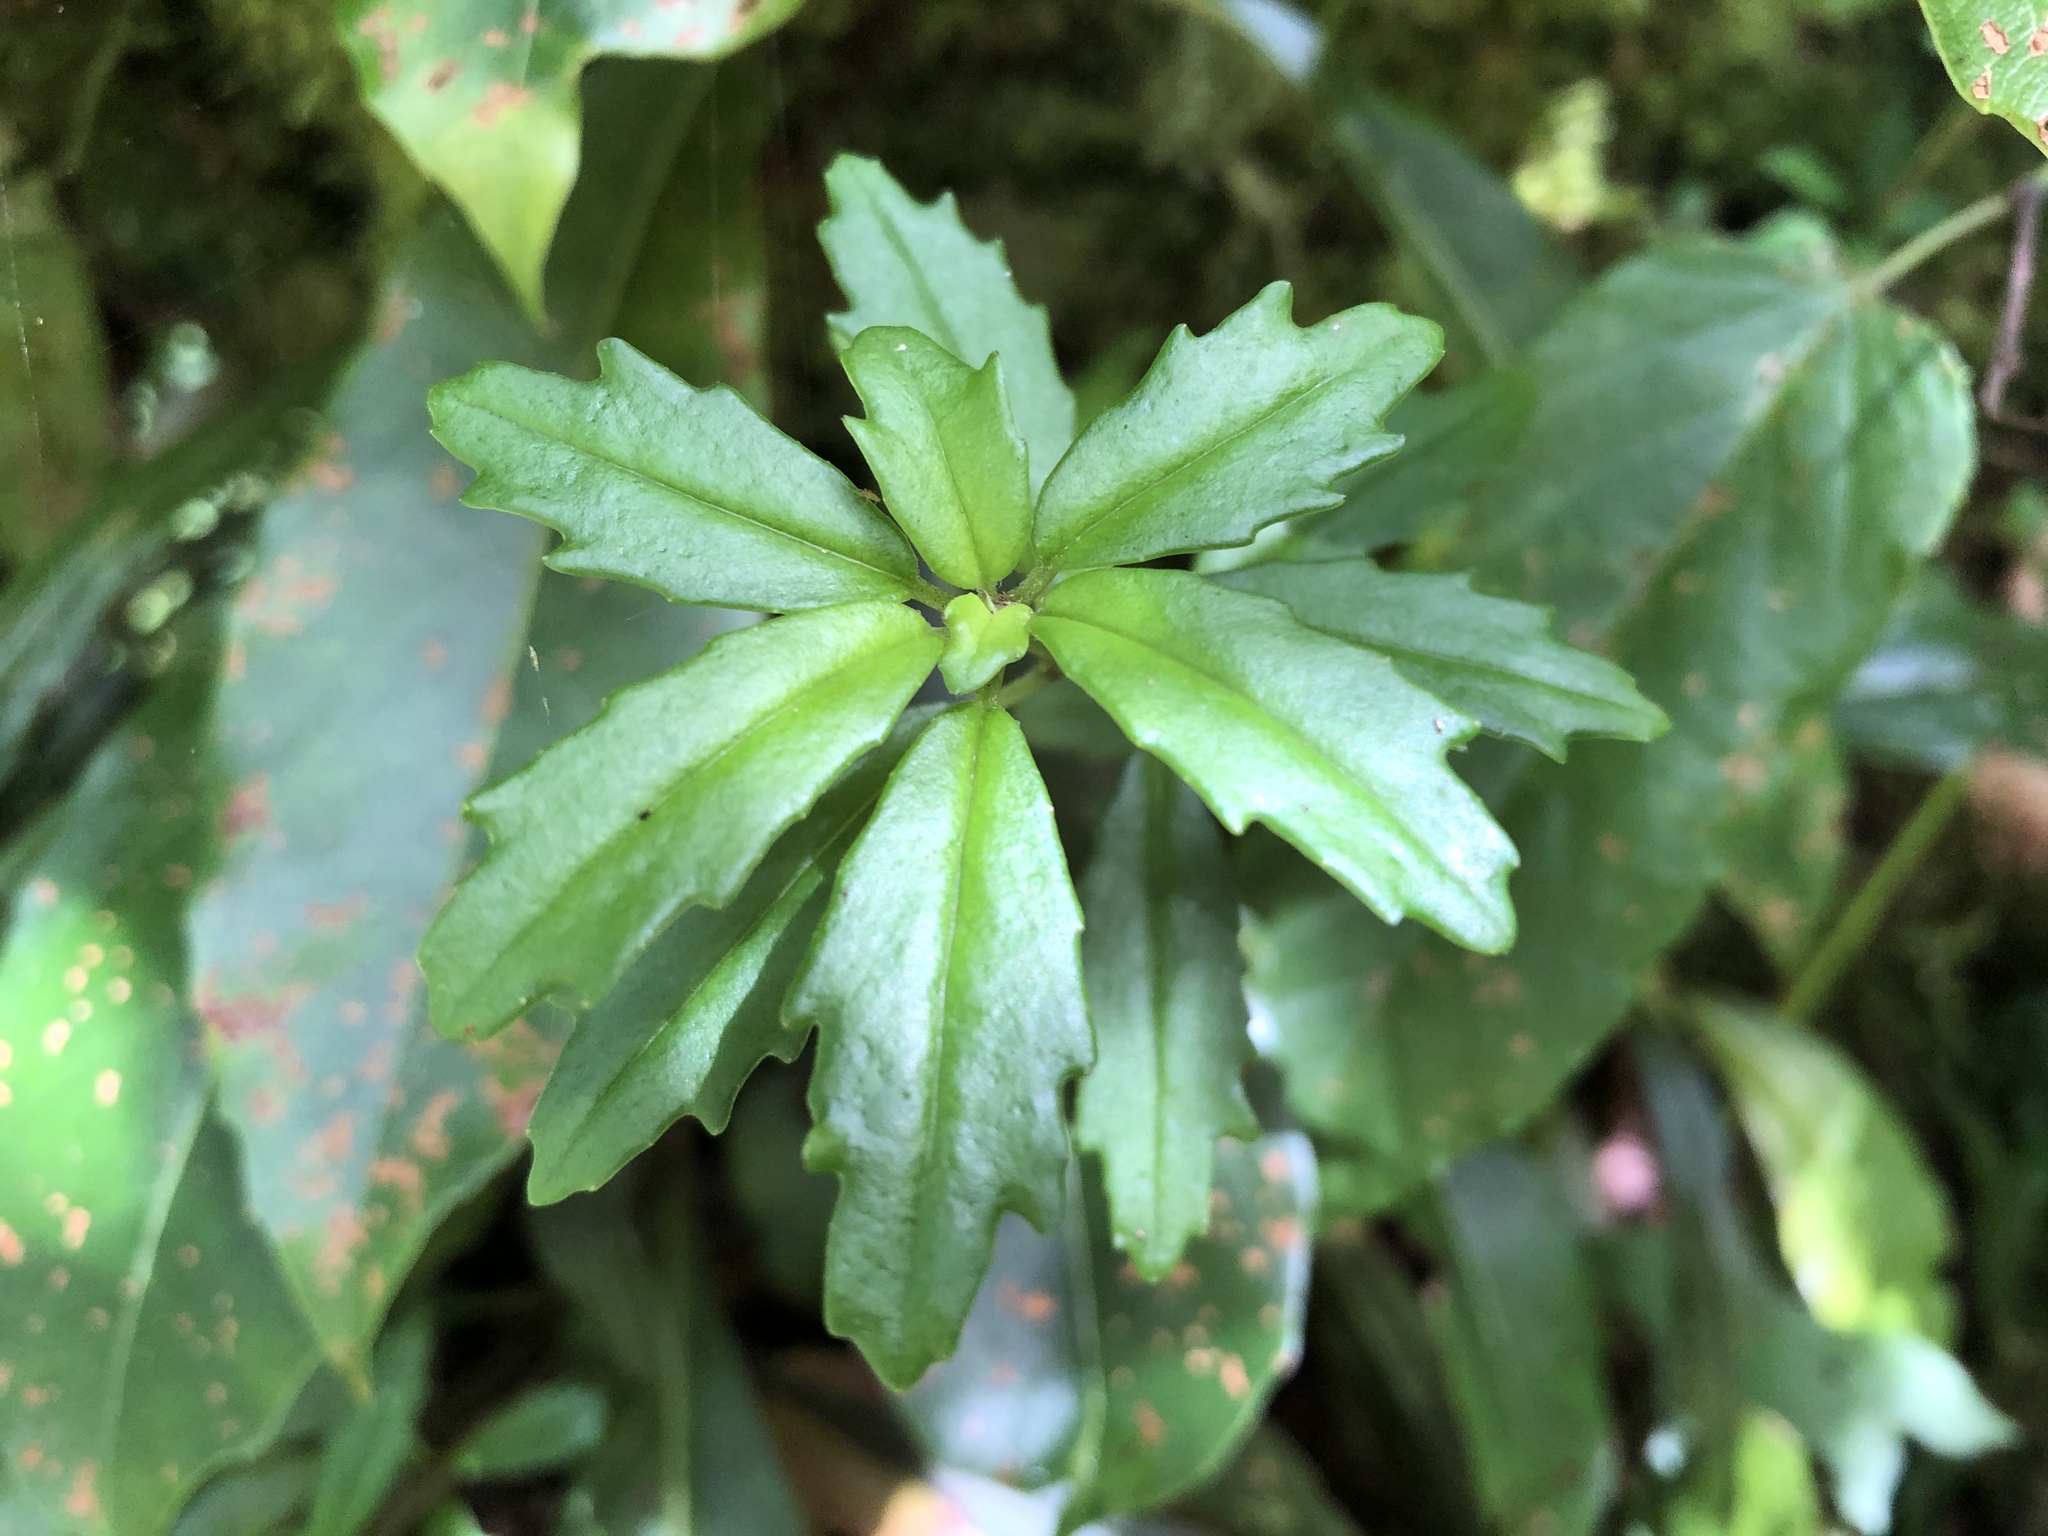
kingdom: Plantae
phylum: Tracheophyta
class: Magnoliopsida
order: Lamiales
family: Gesneriaceae
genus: Lysionotus
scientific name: Lysionotus pauciflorus
